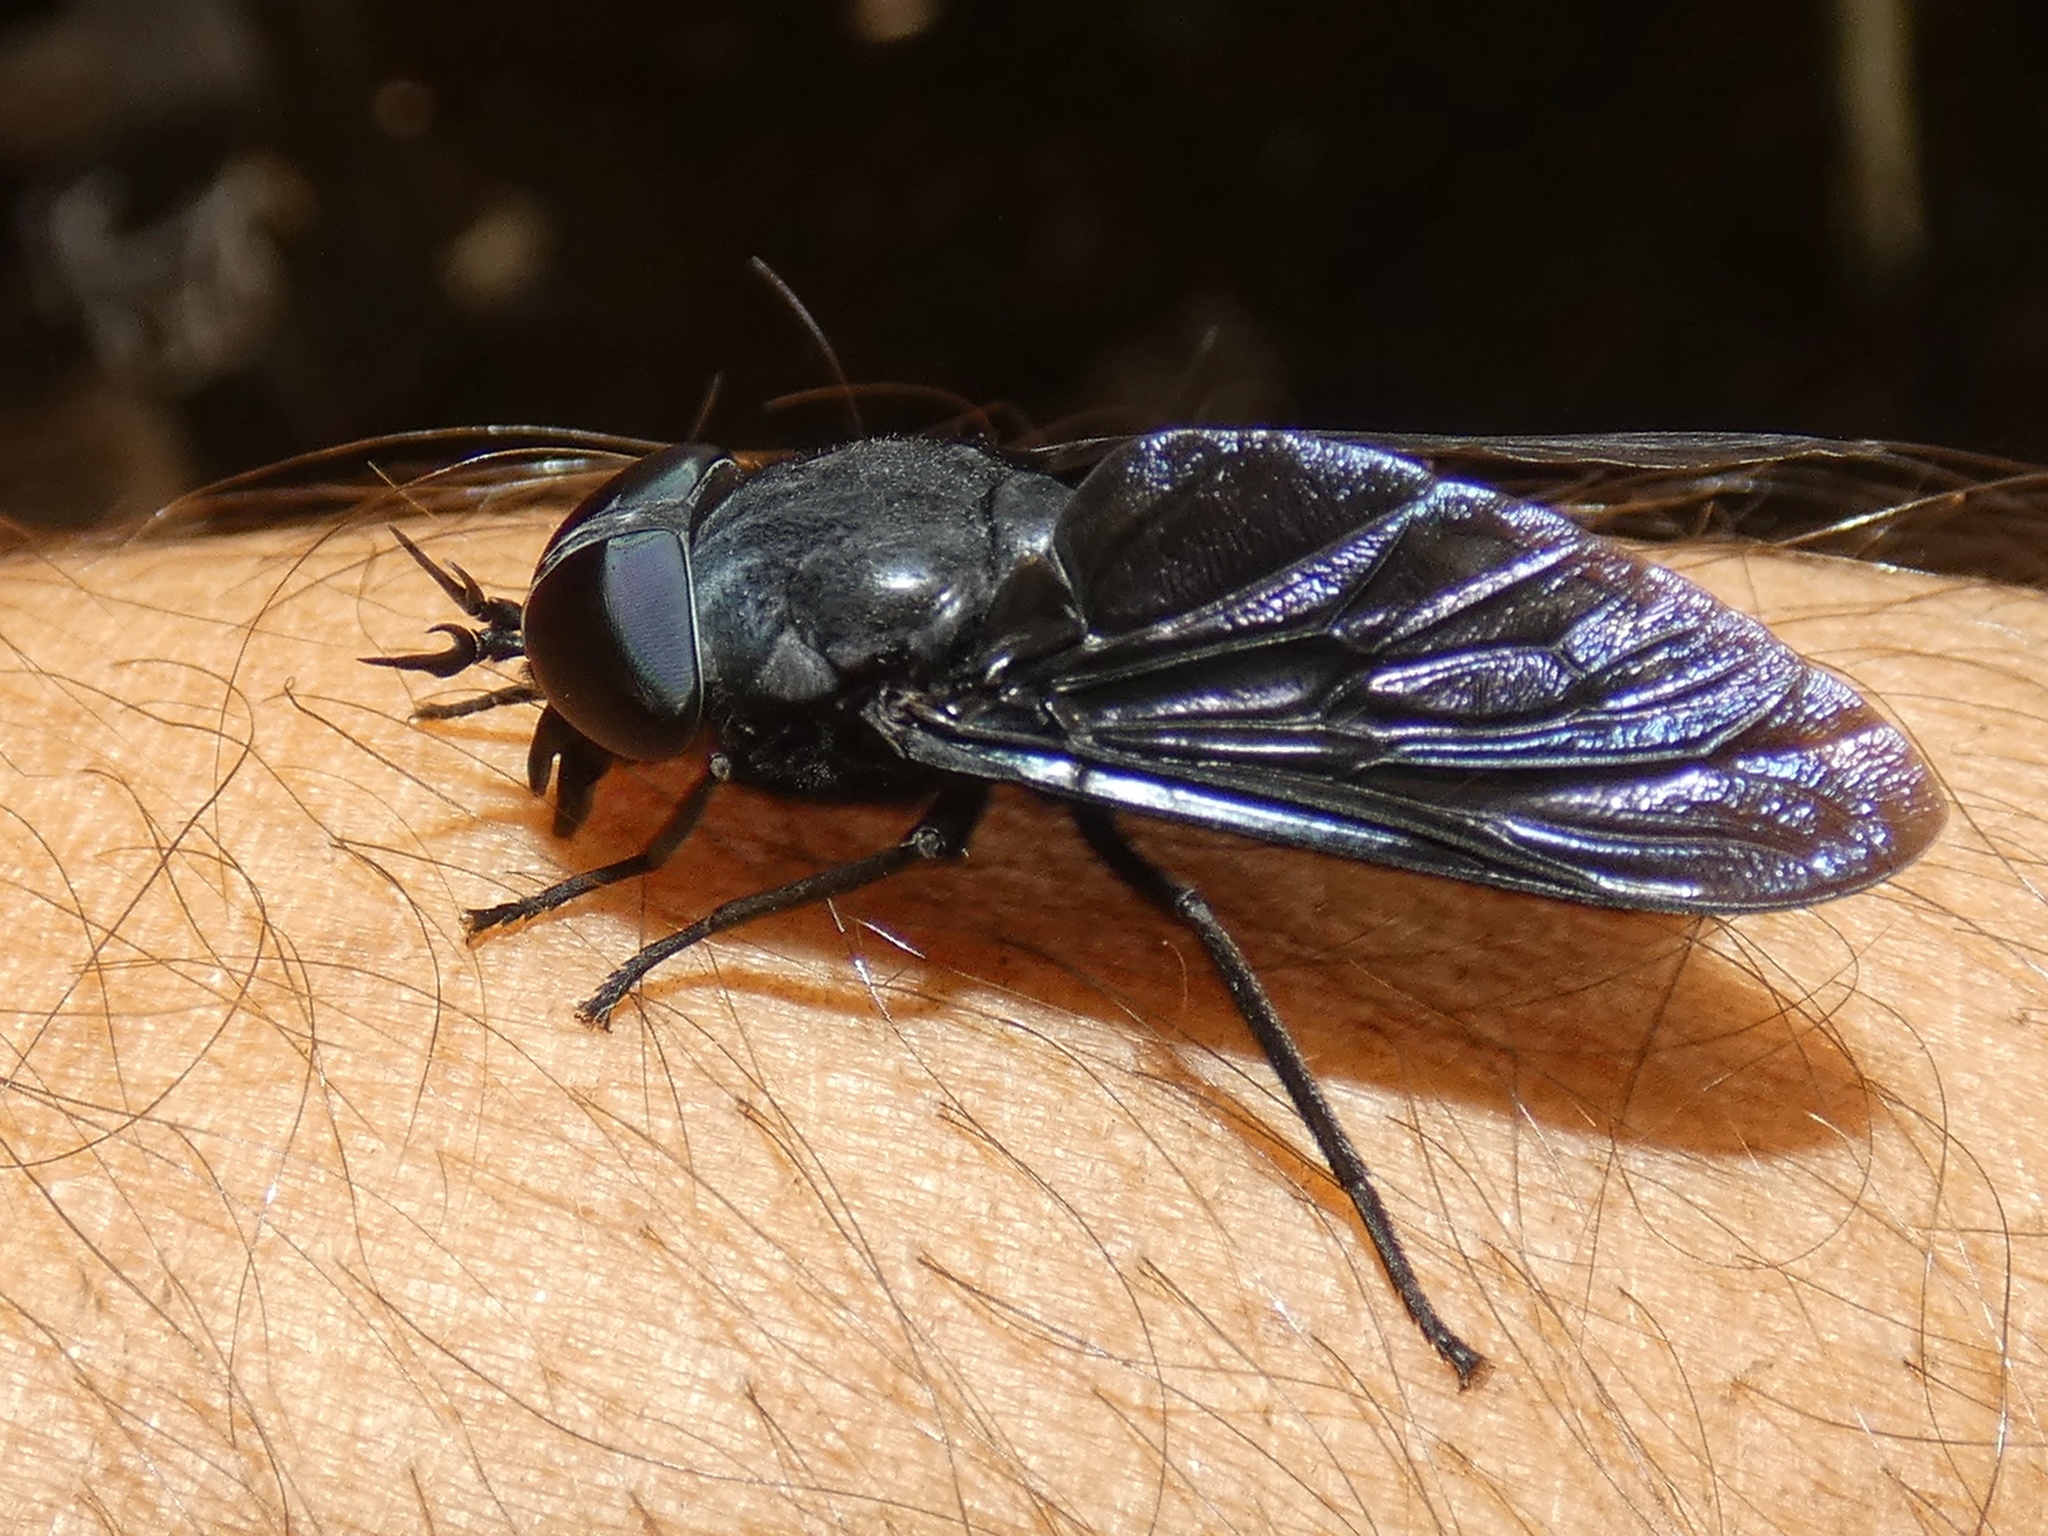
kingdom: Animalia
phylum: Arthropoda
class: Insecta
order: Diptera
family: Tabanidae
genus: Tabanus
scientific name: Tabanus erebus
